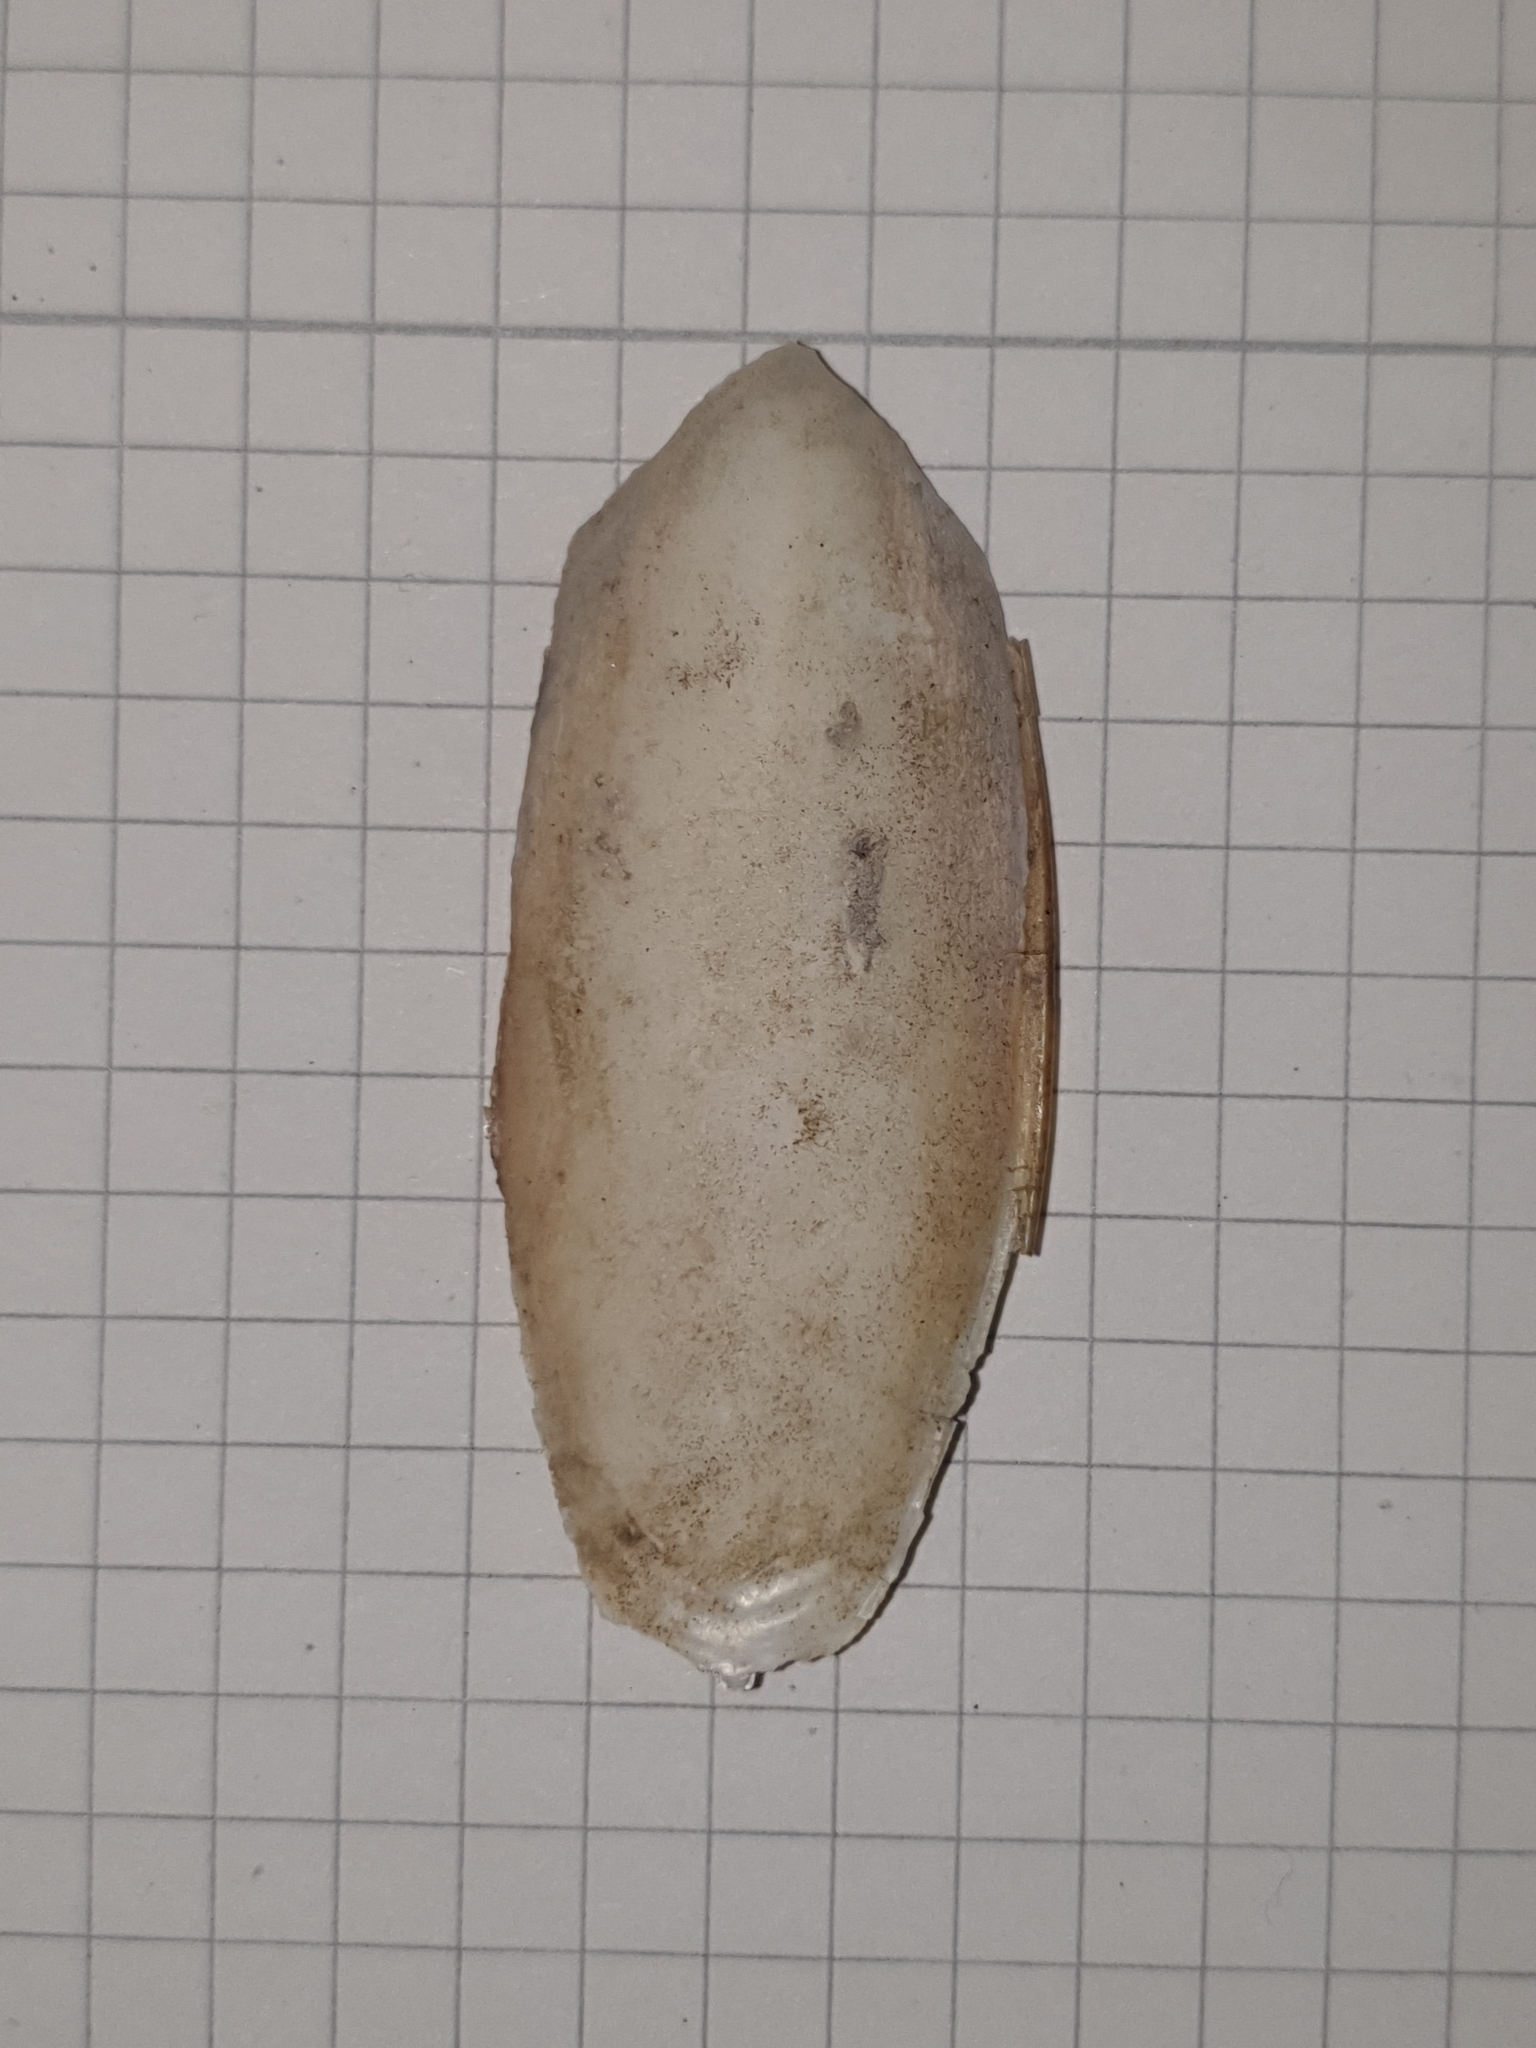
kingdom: Animalia
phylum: Mollusca
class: Cephalopoda
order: Sepiida
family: Sepiidae
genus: Sepia
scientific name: Sepia officinalis
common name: Common cuttlefish
